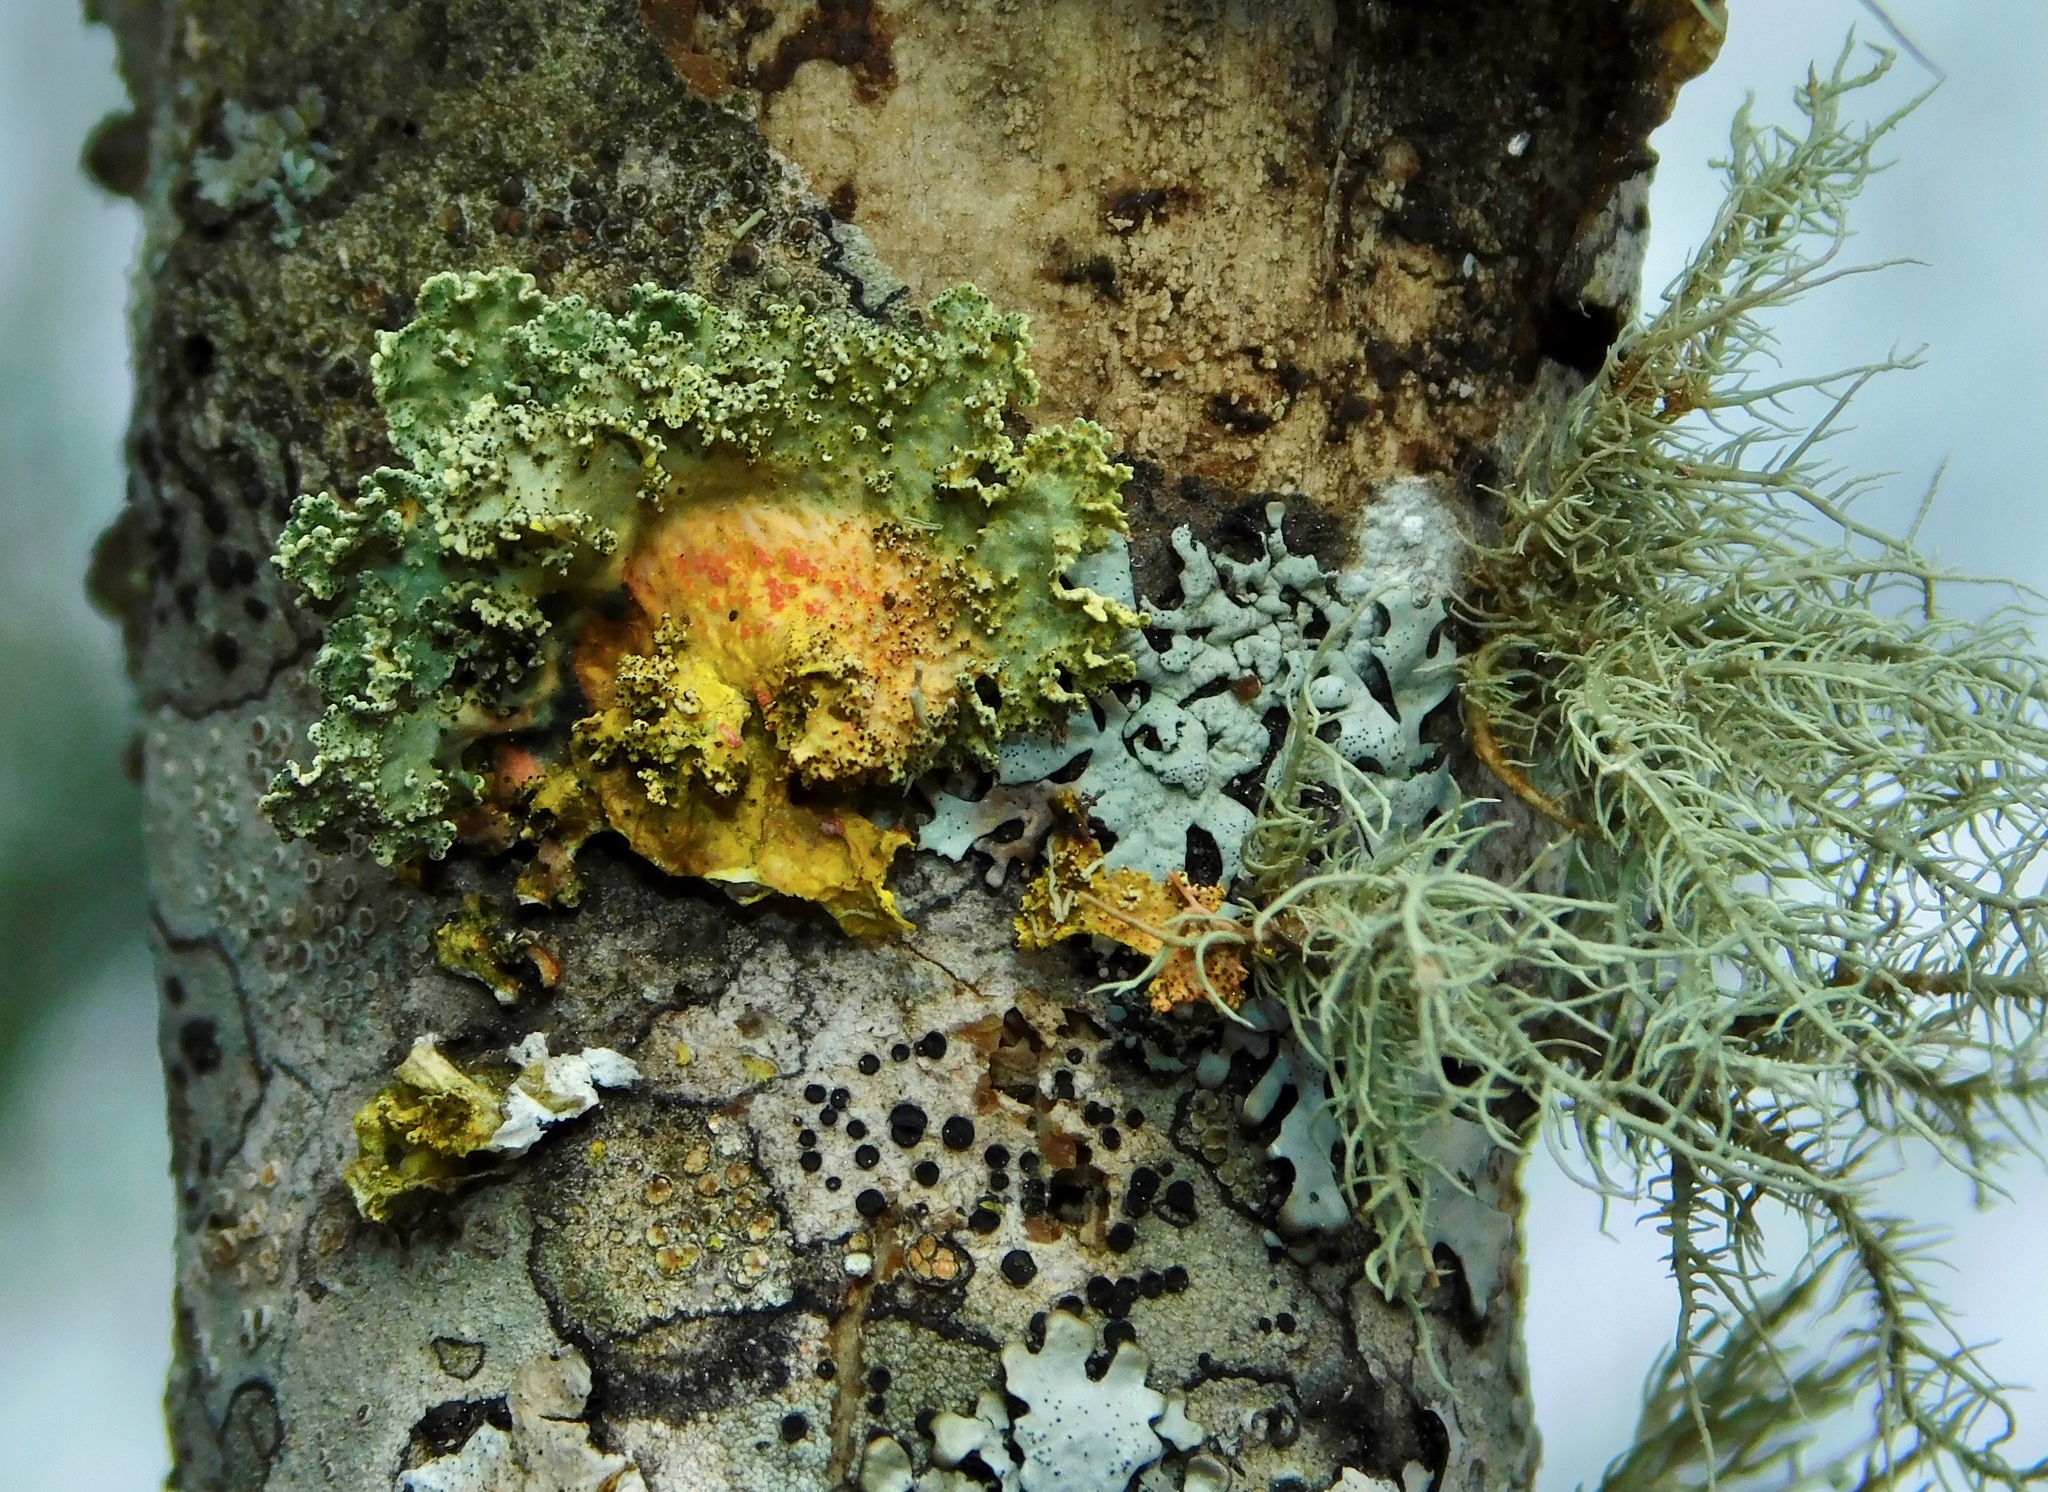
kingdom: Fungi
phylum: Ascomycota
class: Lecanoromycetes
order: Lecanorales
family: Parmeliaceae
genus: Vulpicida
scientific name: Vulpicida viridis
